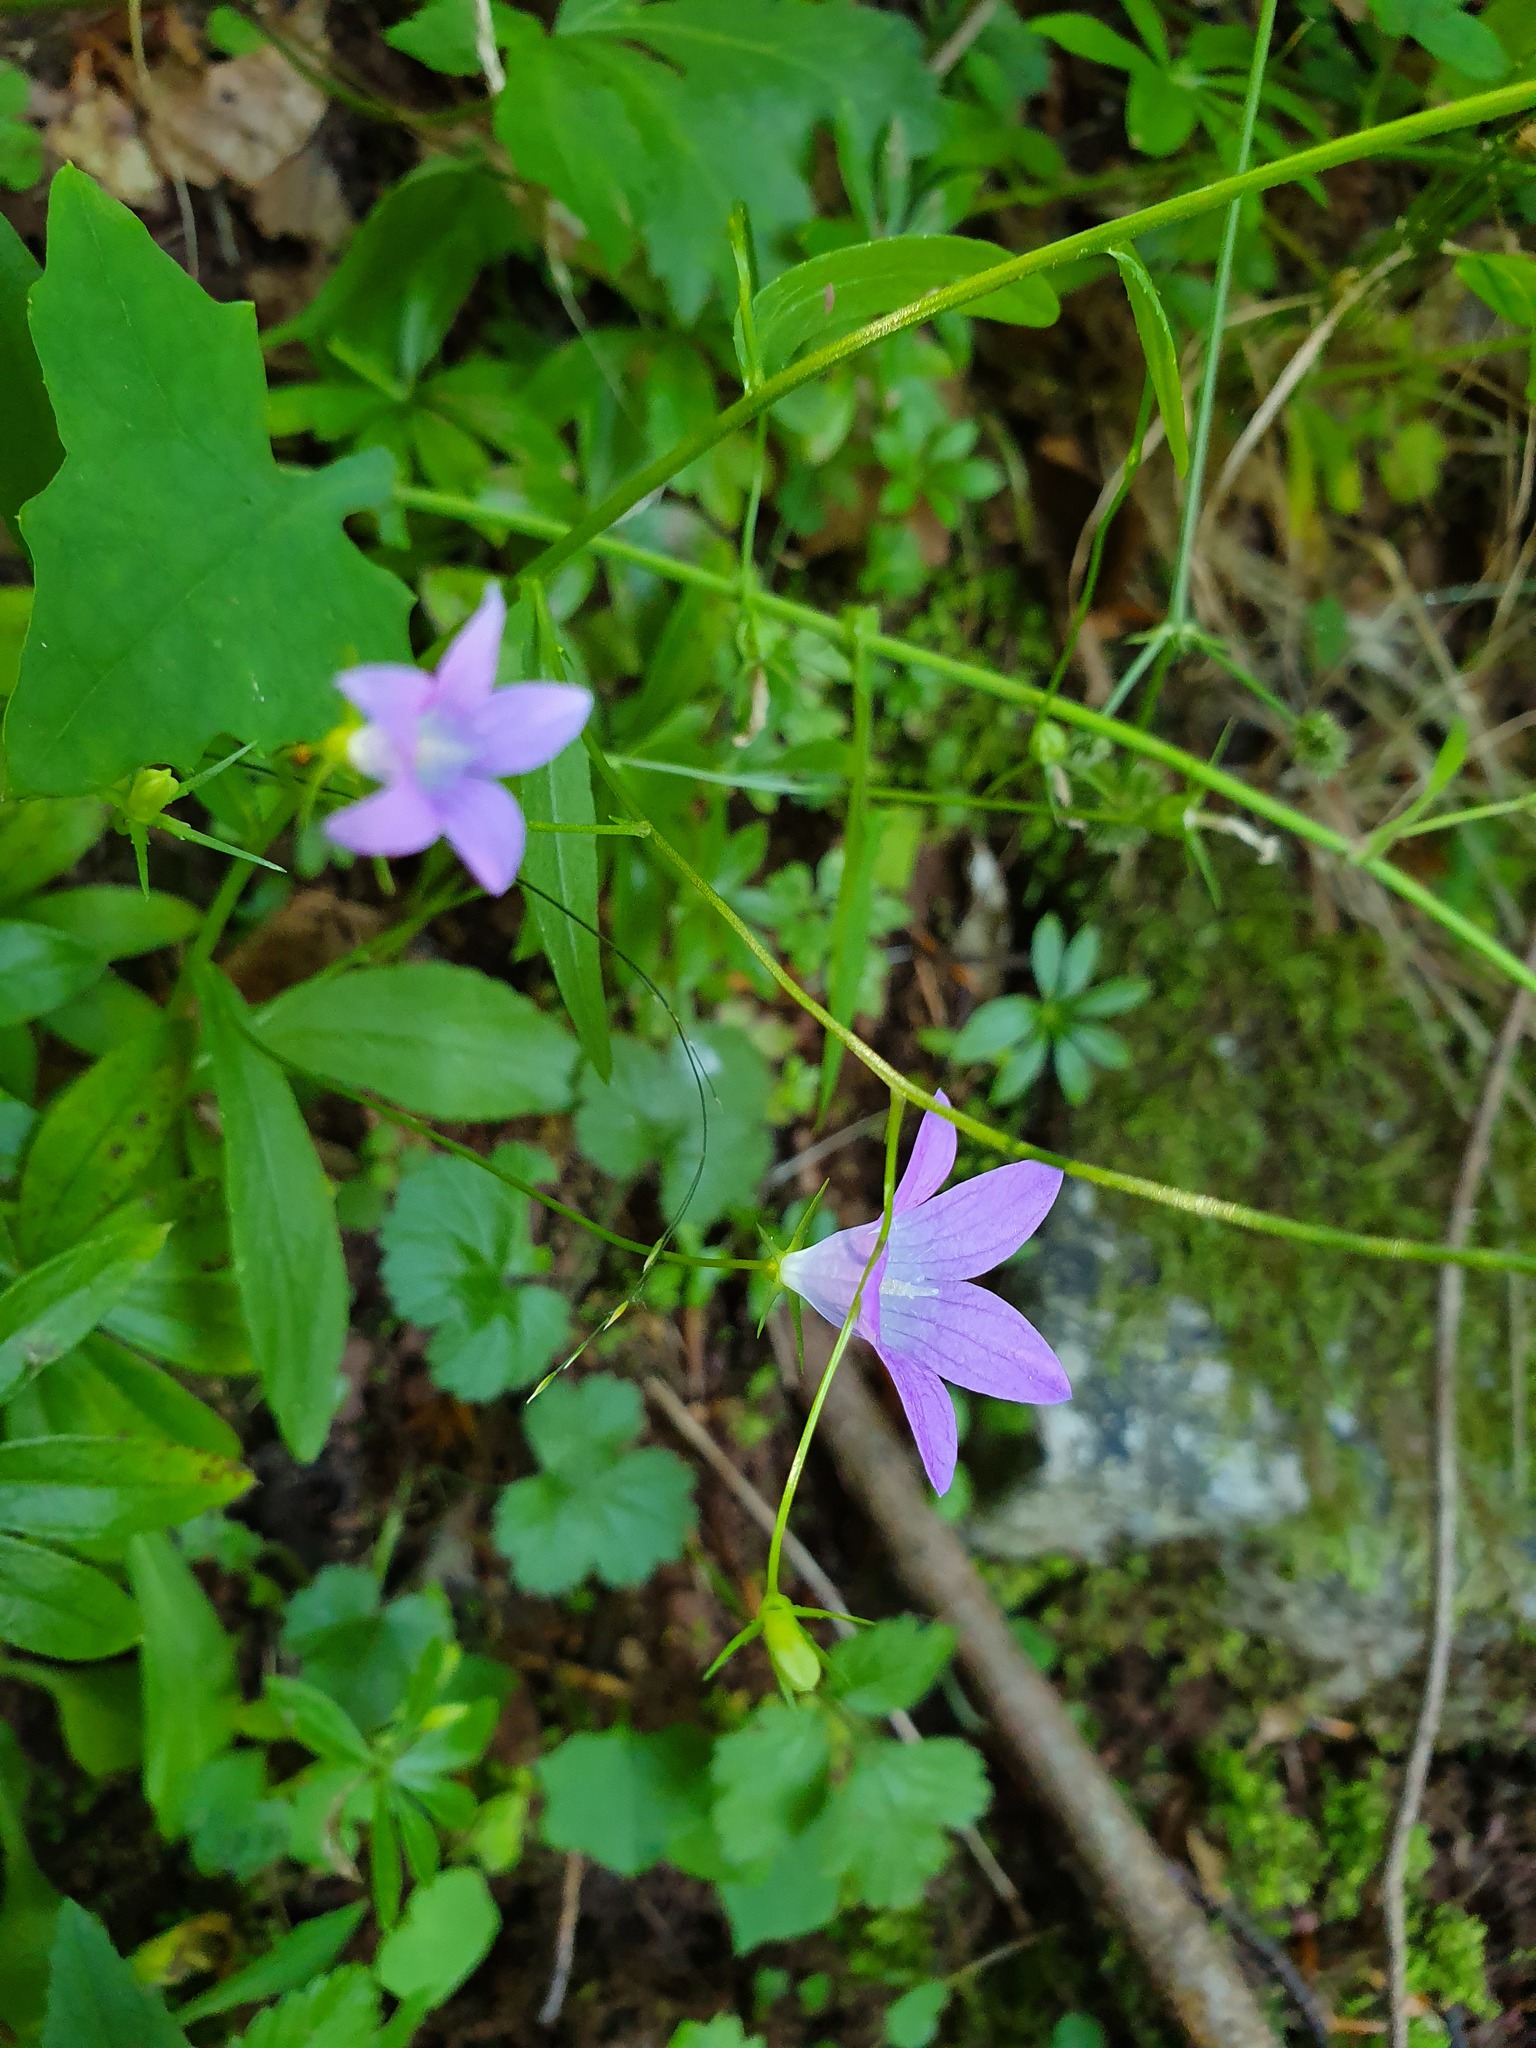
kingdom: Plantae
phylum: Tracheophyta
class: Magnoliopsida
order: Asterales
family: Campanulaceae
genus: Campanula
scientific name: Campanula patula
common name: Spreading bellflower
